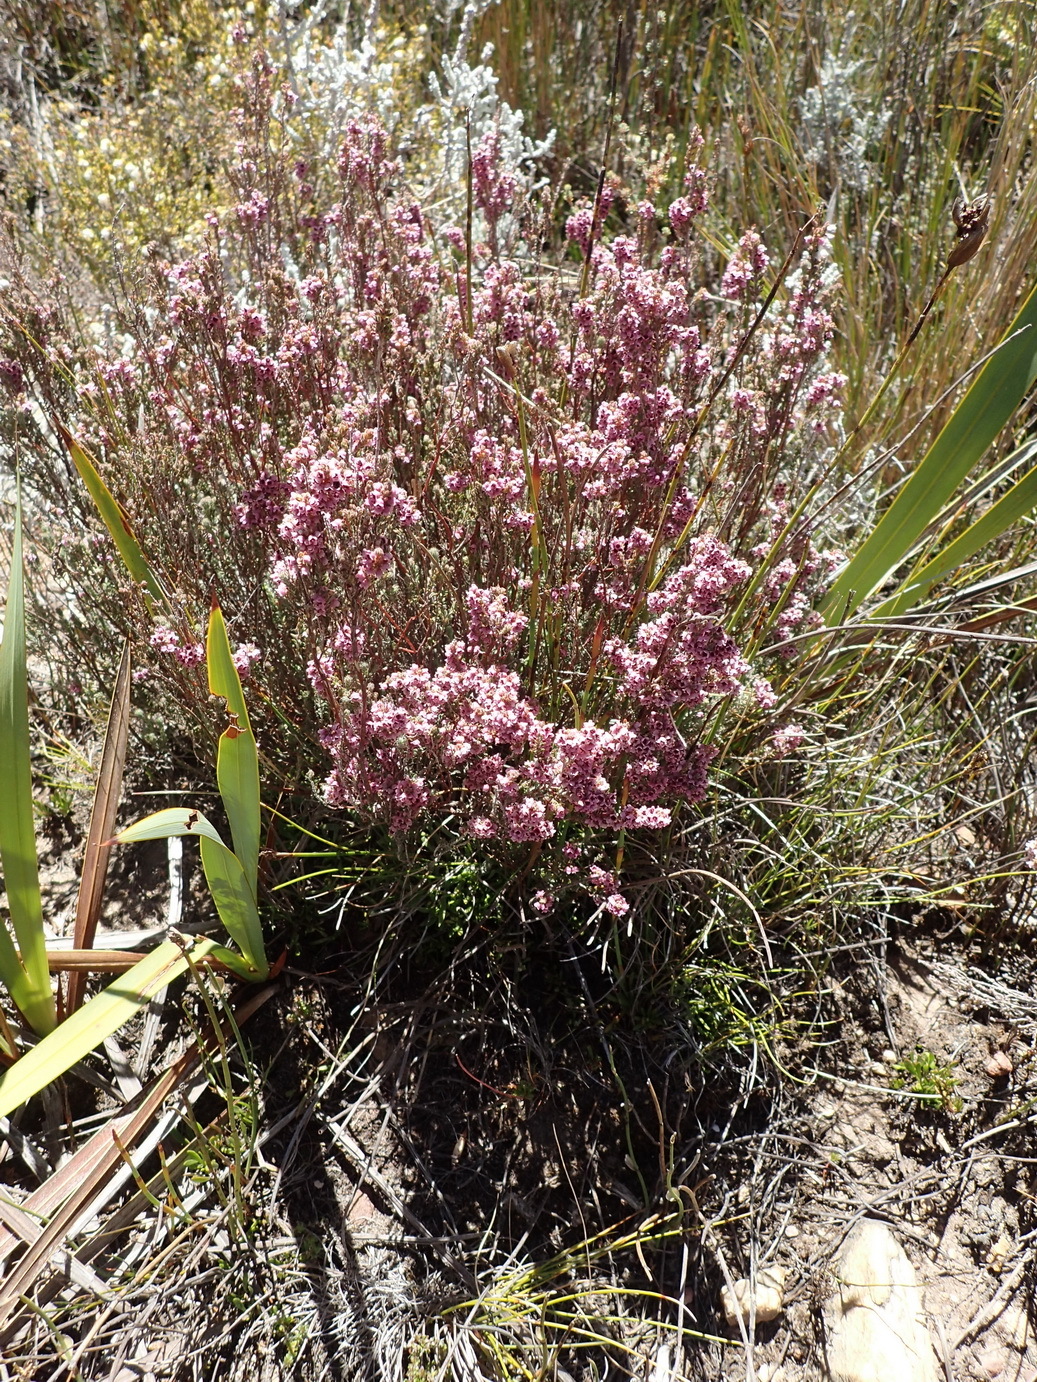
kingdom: Plantae
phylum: Tracheophyta
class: Magnoliopsida
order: Ericales
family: Ericaceae
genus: Erica
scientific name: Erica glandulipila
